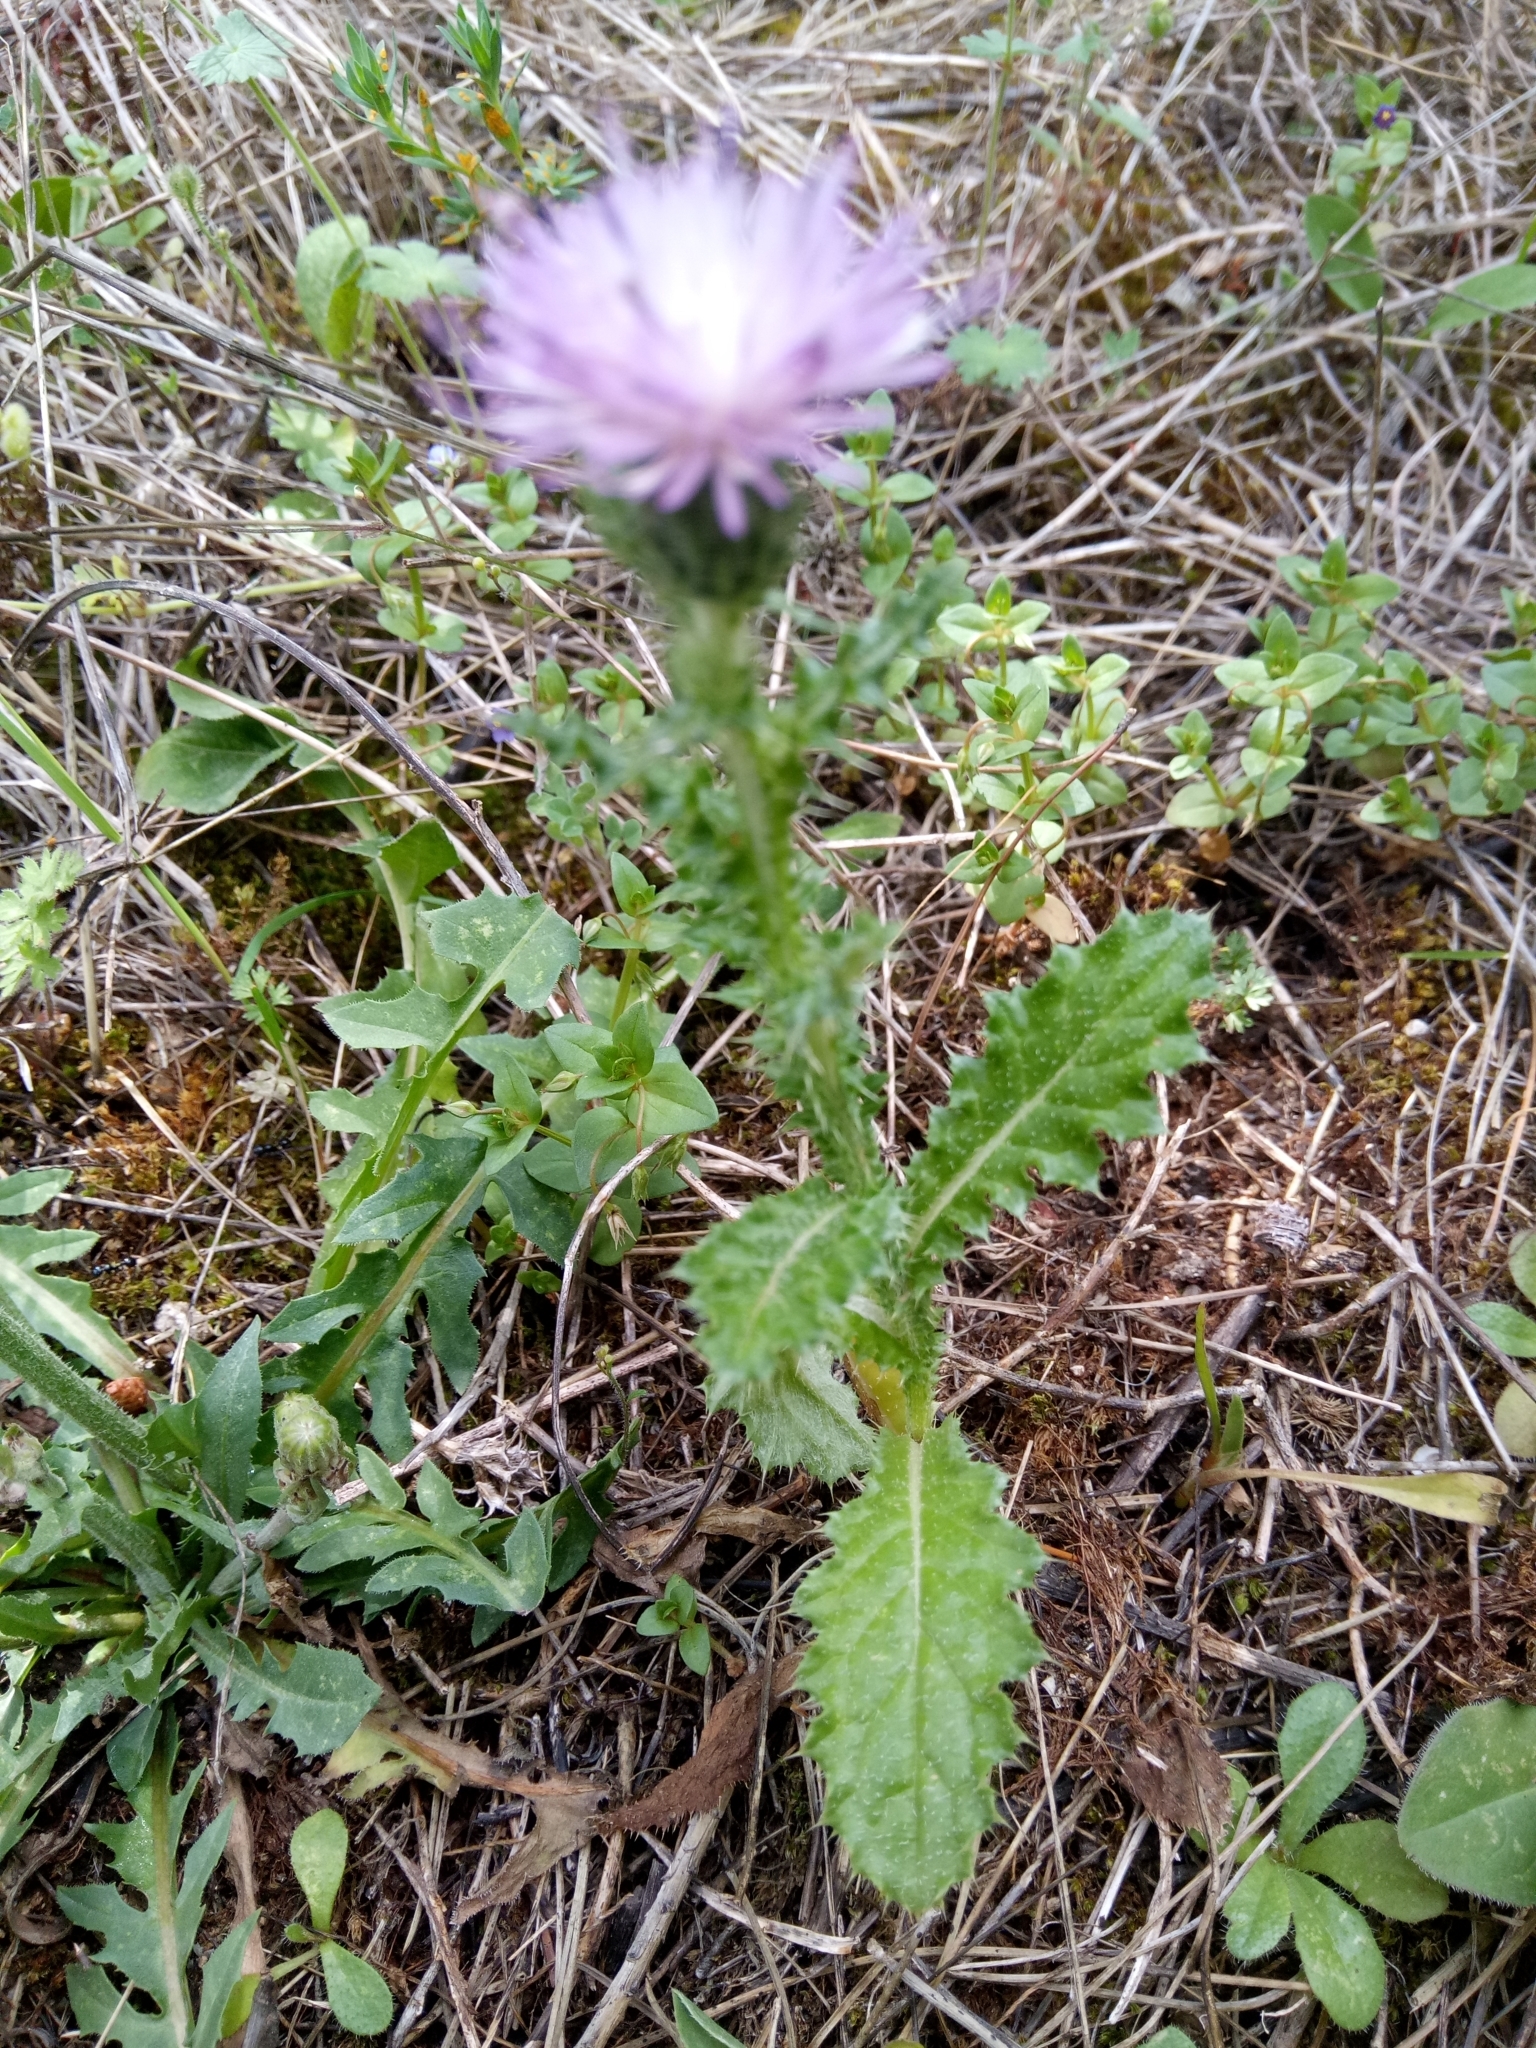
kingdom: Plantae
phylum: Tracheophyta
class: Magnoliopsida
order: Asterales
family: Asteraceae
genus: Carduus
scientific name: Carduus spachianus
